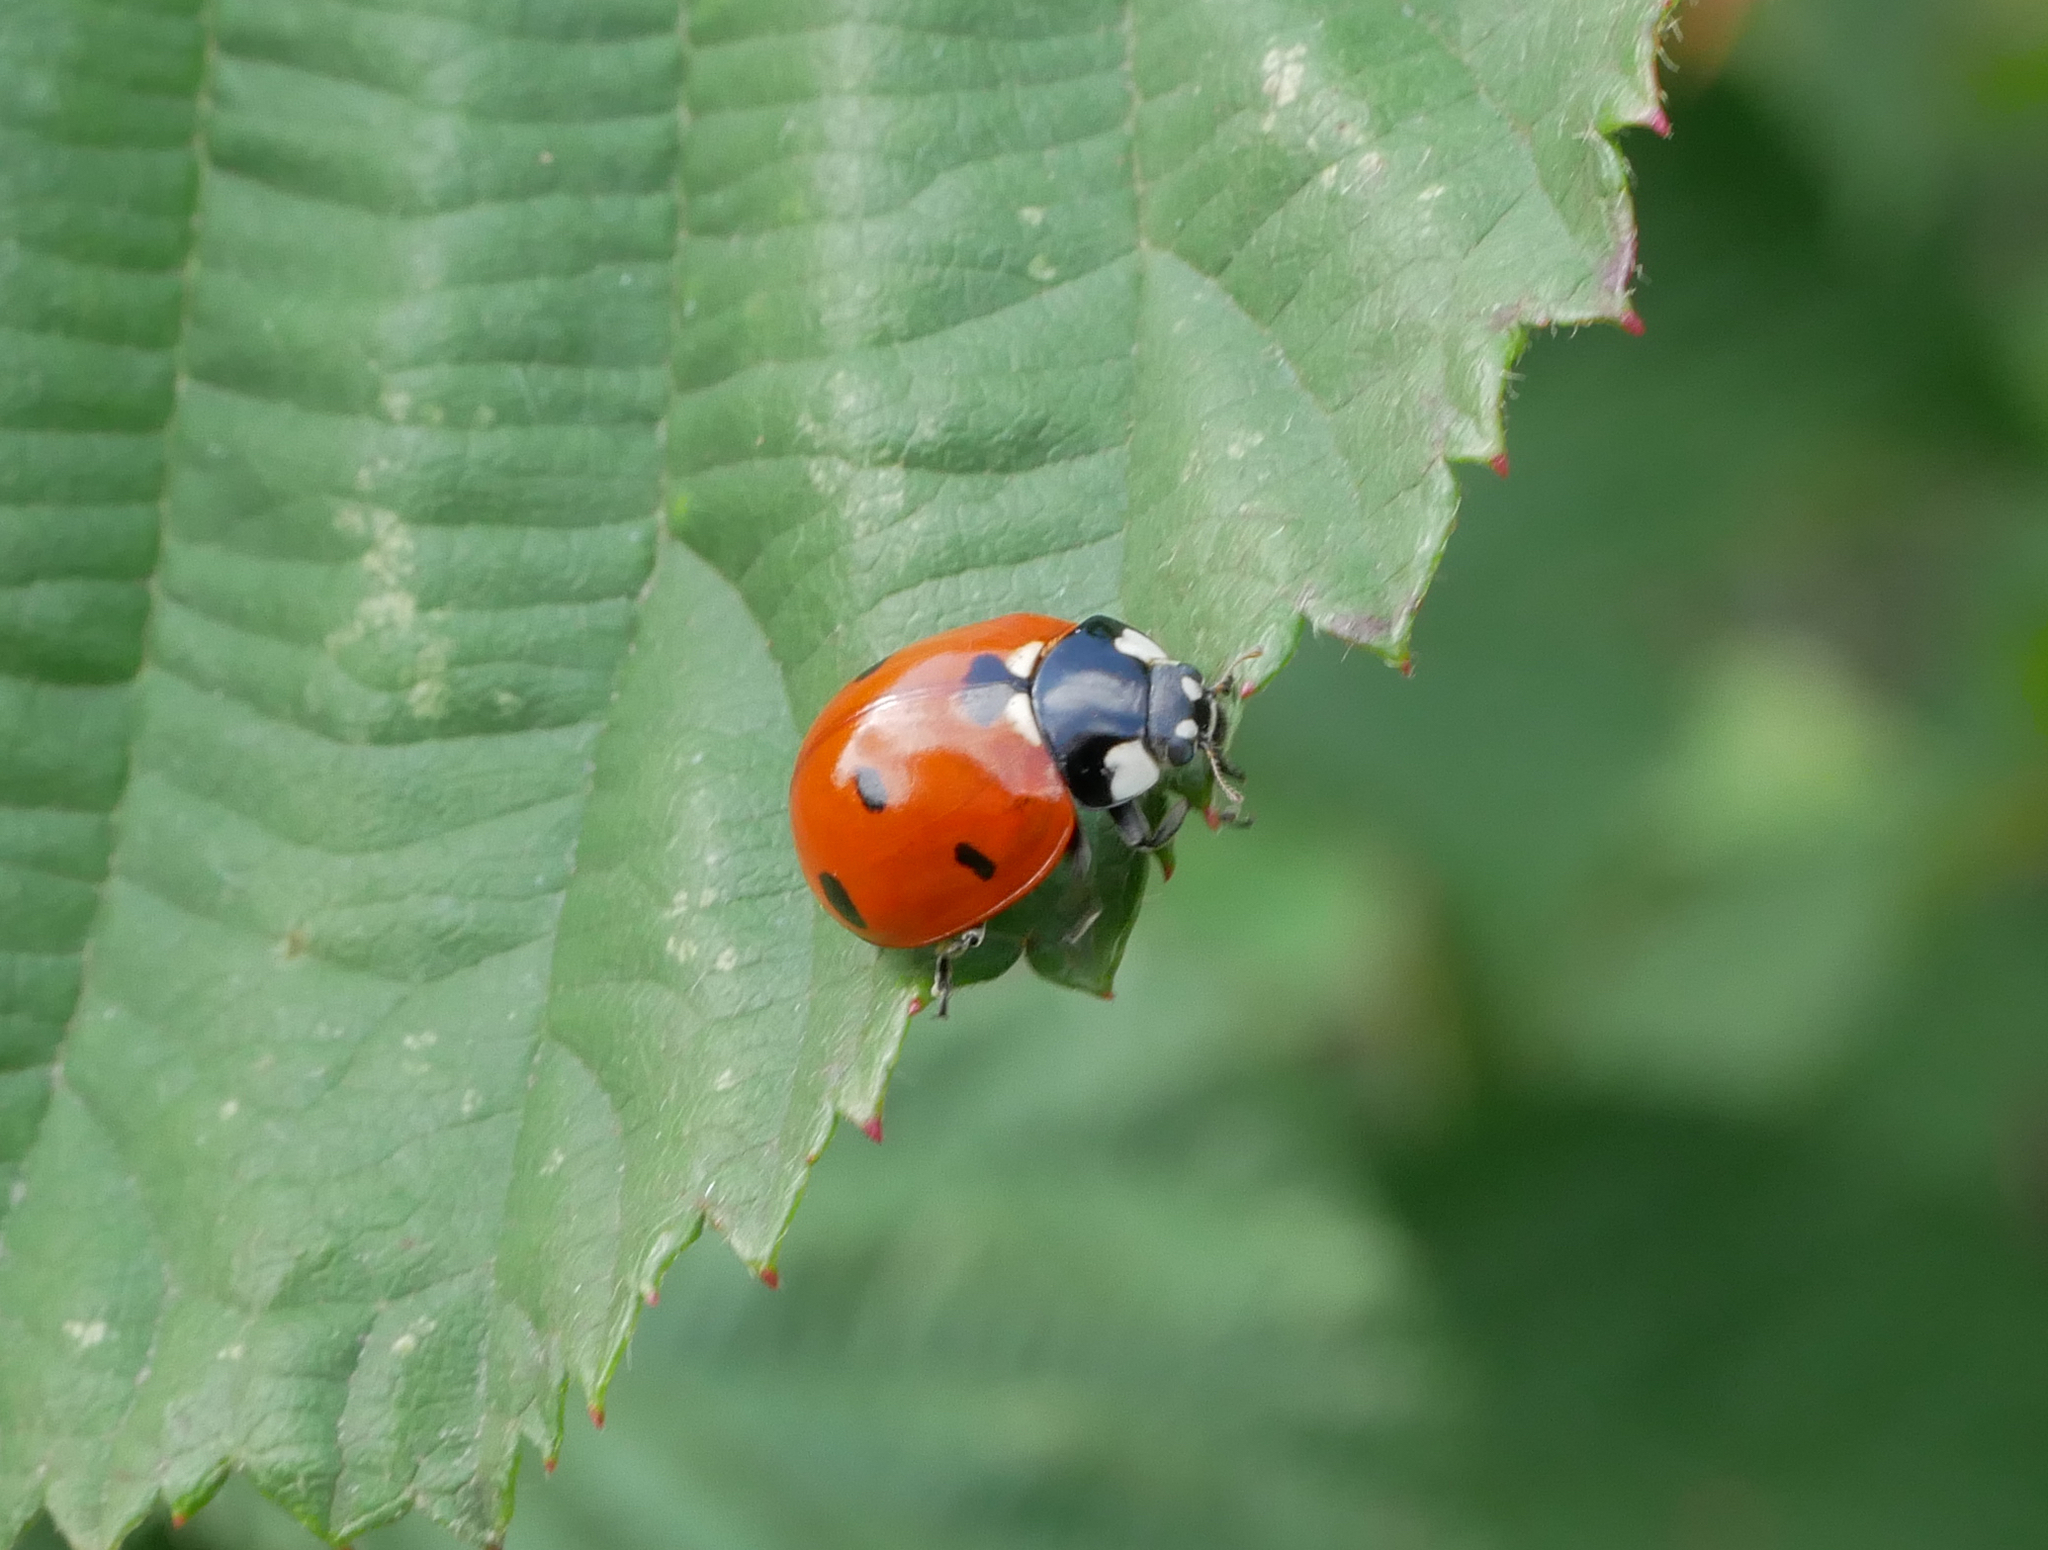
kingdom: Animalia
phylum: Arthropoda
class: Insecta
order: Coleoptera
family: Coccinellidae
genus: Coccinella
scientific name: Coccinella septempunctata
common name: Sevenspotted lady beetle
